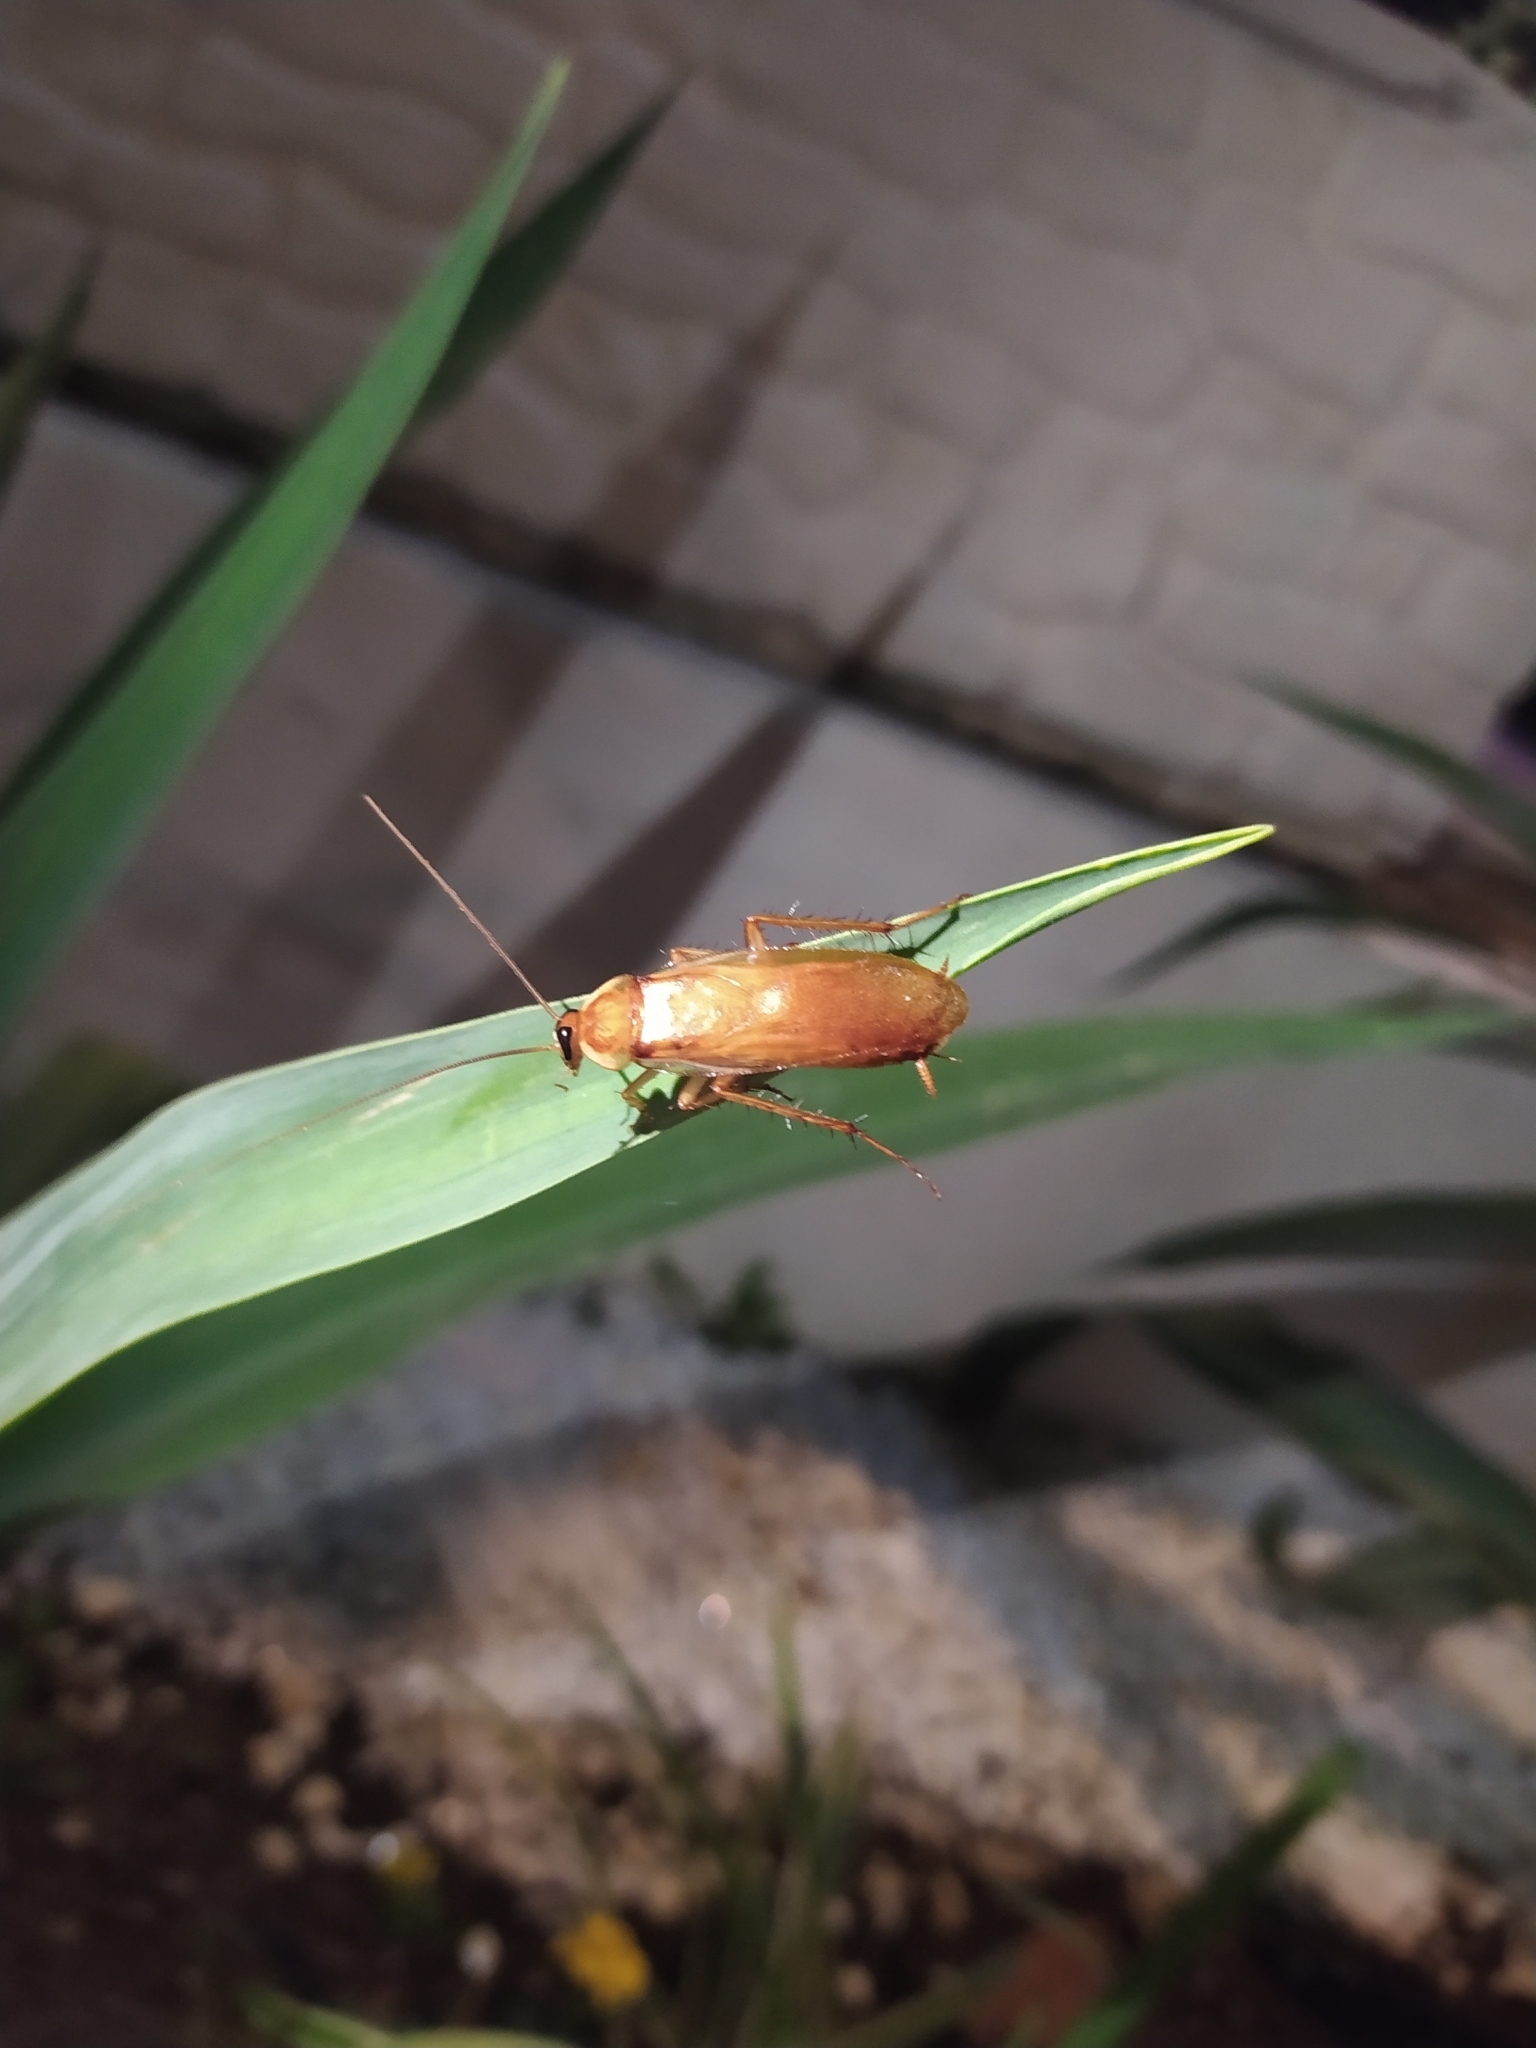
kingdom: Animalia
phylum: Arthropoda
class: Insecta
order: Blattodea
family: Blattidae
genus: Periplaneta
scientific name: Periplaneta lateralis
